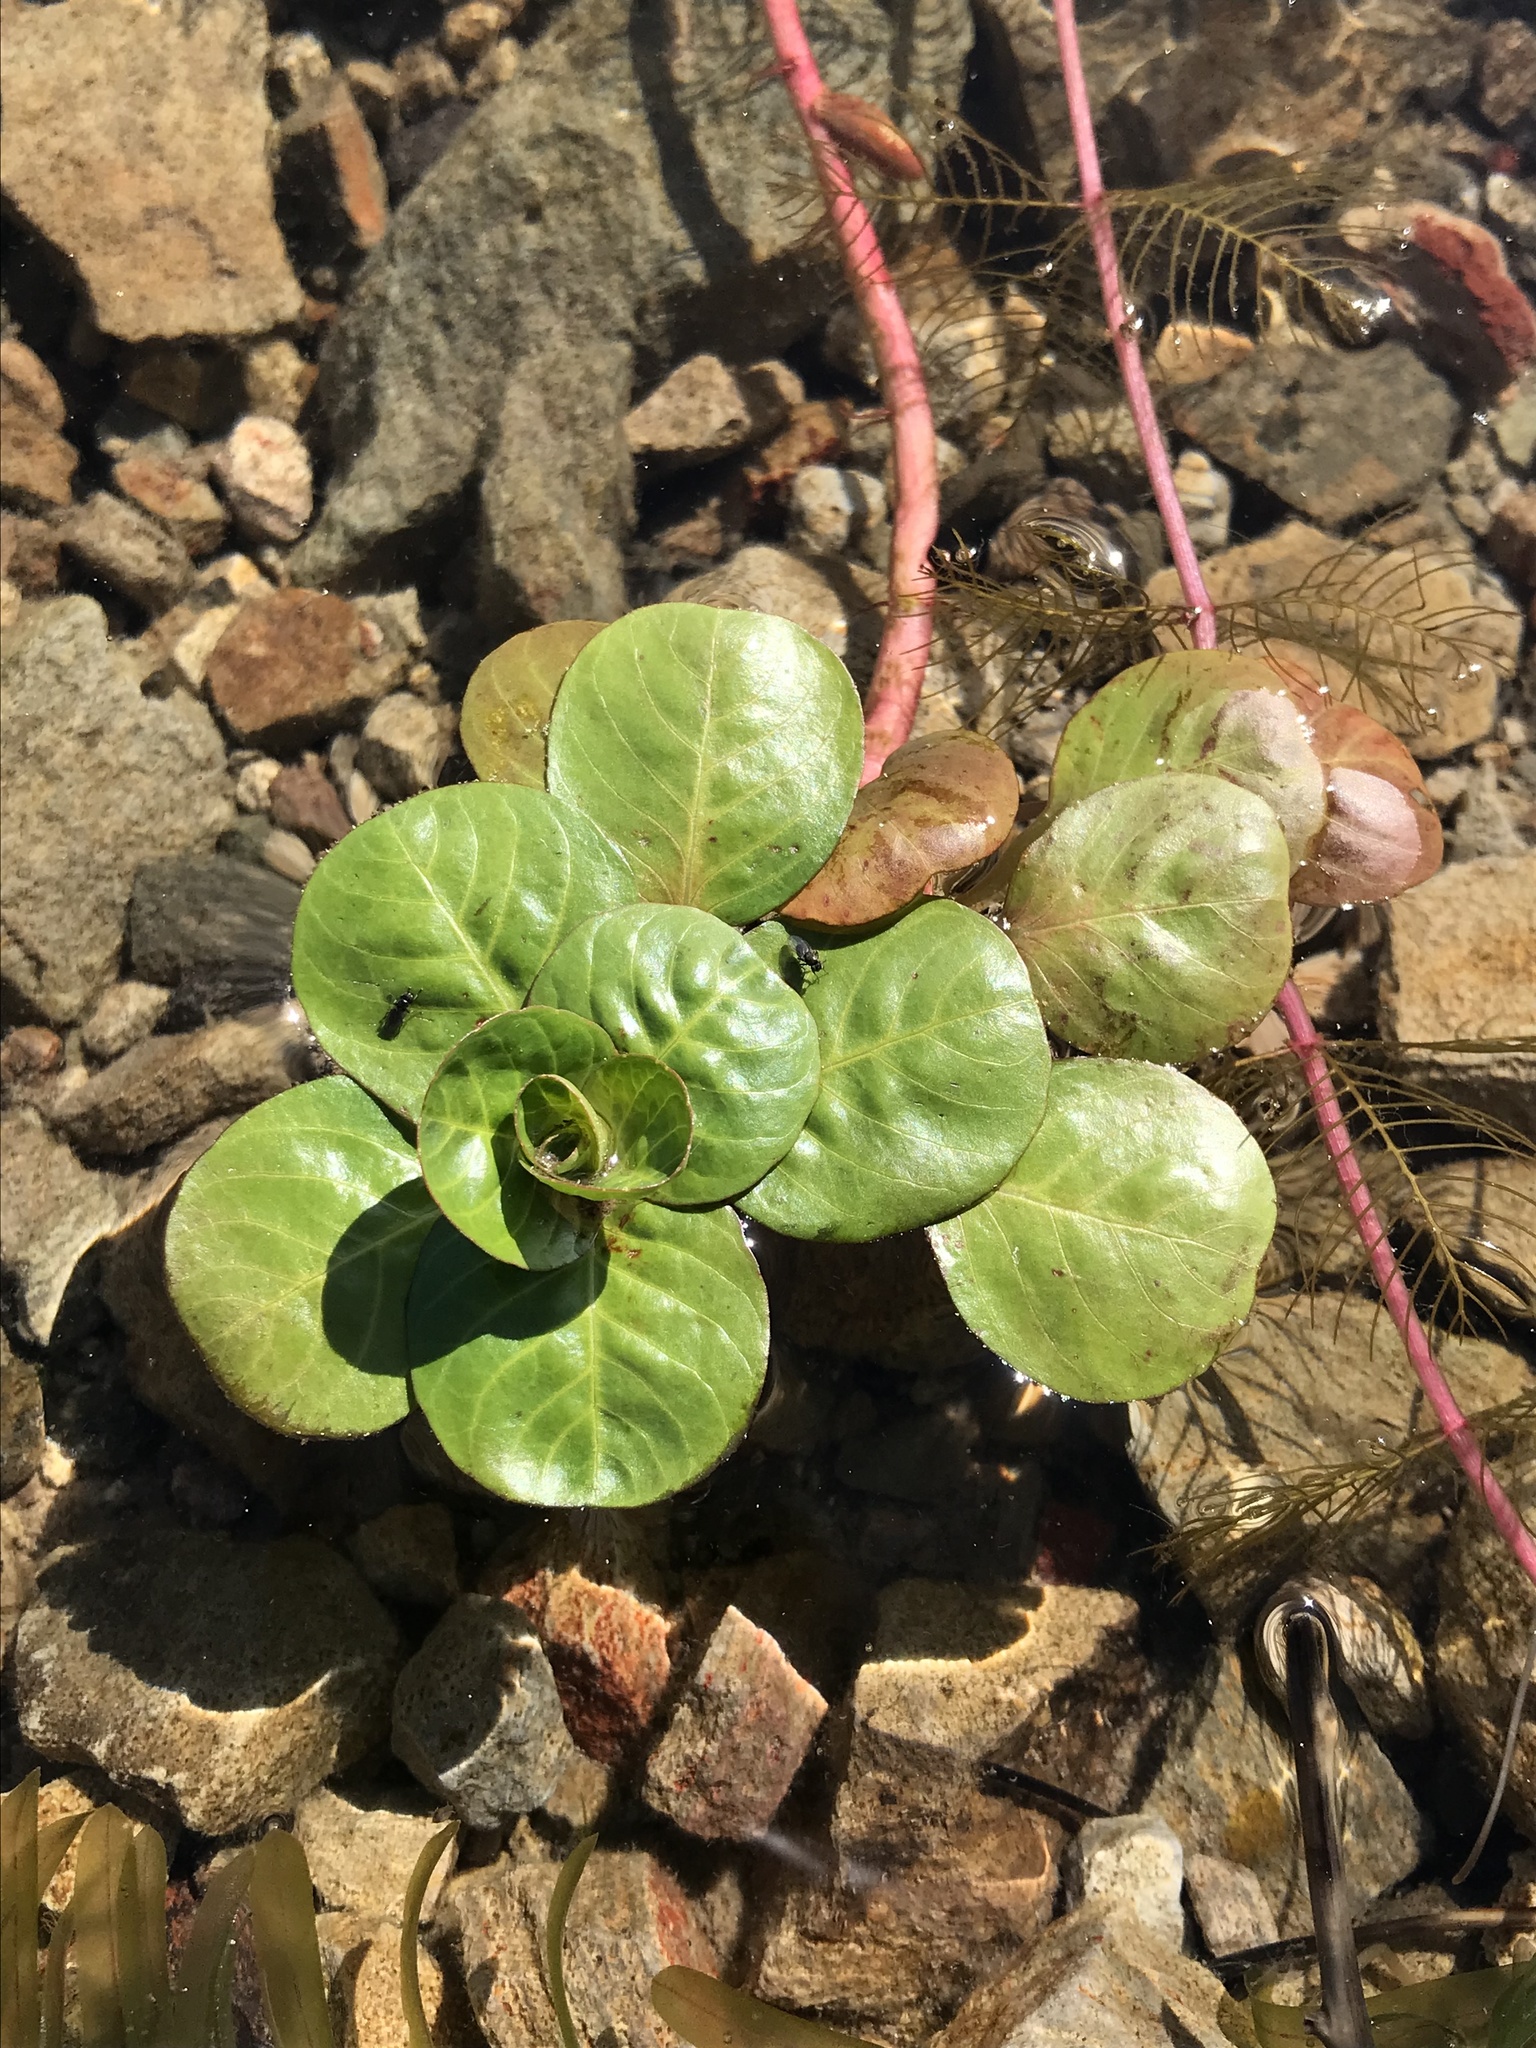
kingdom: Plantae
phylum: Tracheophyta
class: Magnoliopsida
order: Myrtales
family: Onagraceae
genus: Ludwigia
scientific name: Ludwigia peploides
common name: Floating primrose-willow
